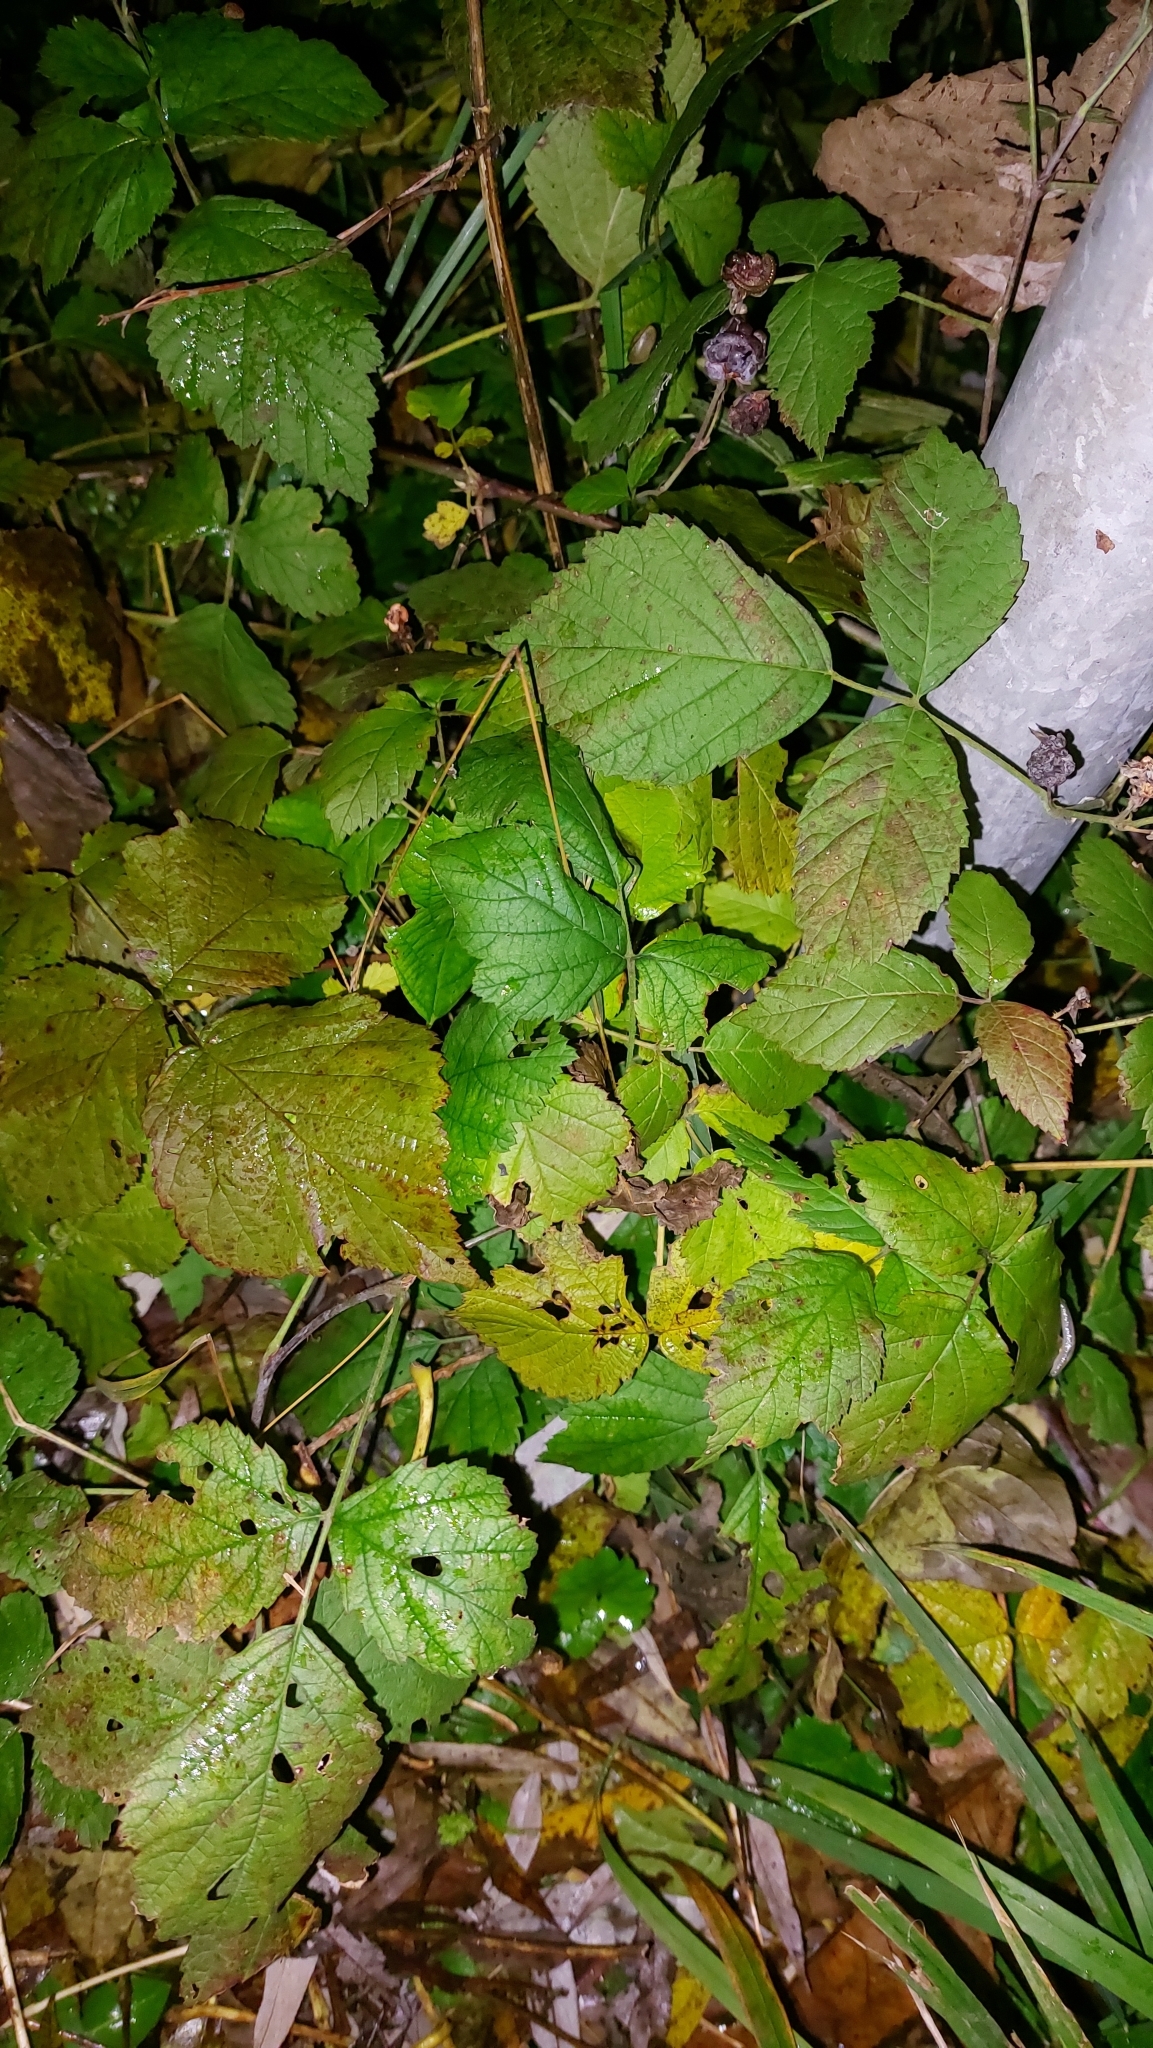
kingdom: Plantae
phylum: Tracheophyta
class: Magnoliopsida
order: Rosales
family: Rosaceae
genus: Rubus
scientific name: Rubus caesius
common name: Dewberry
